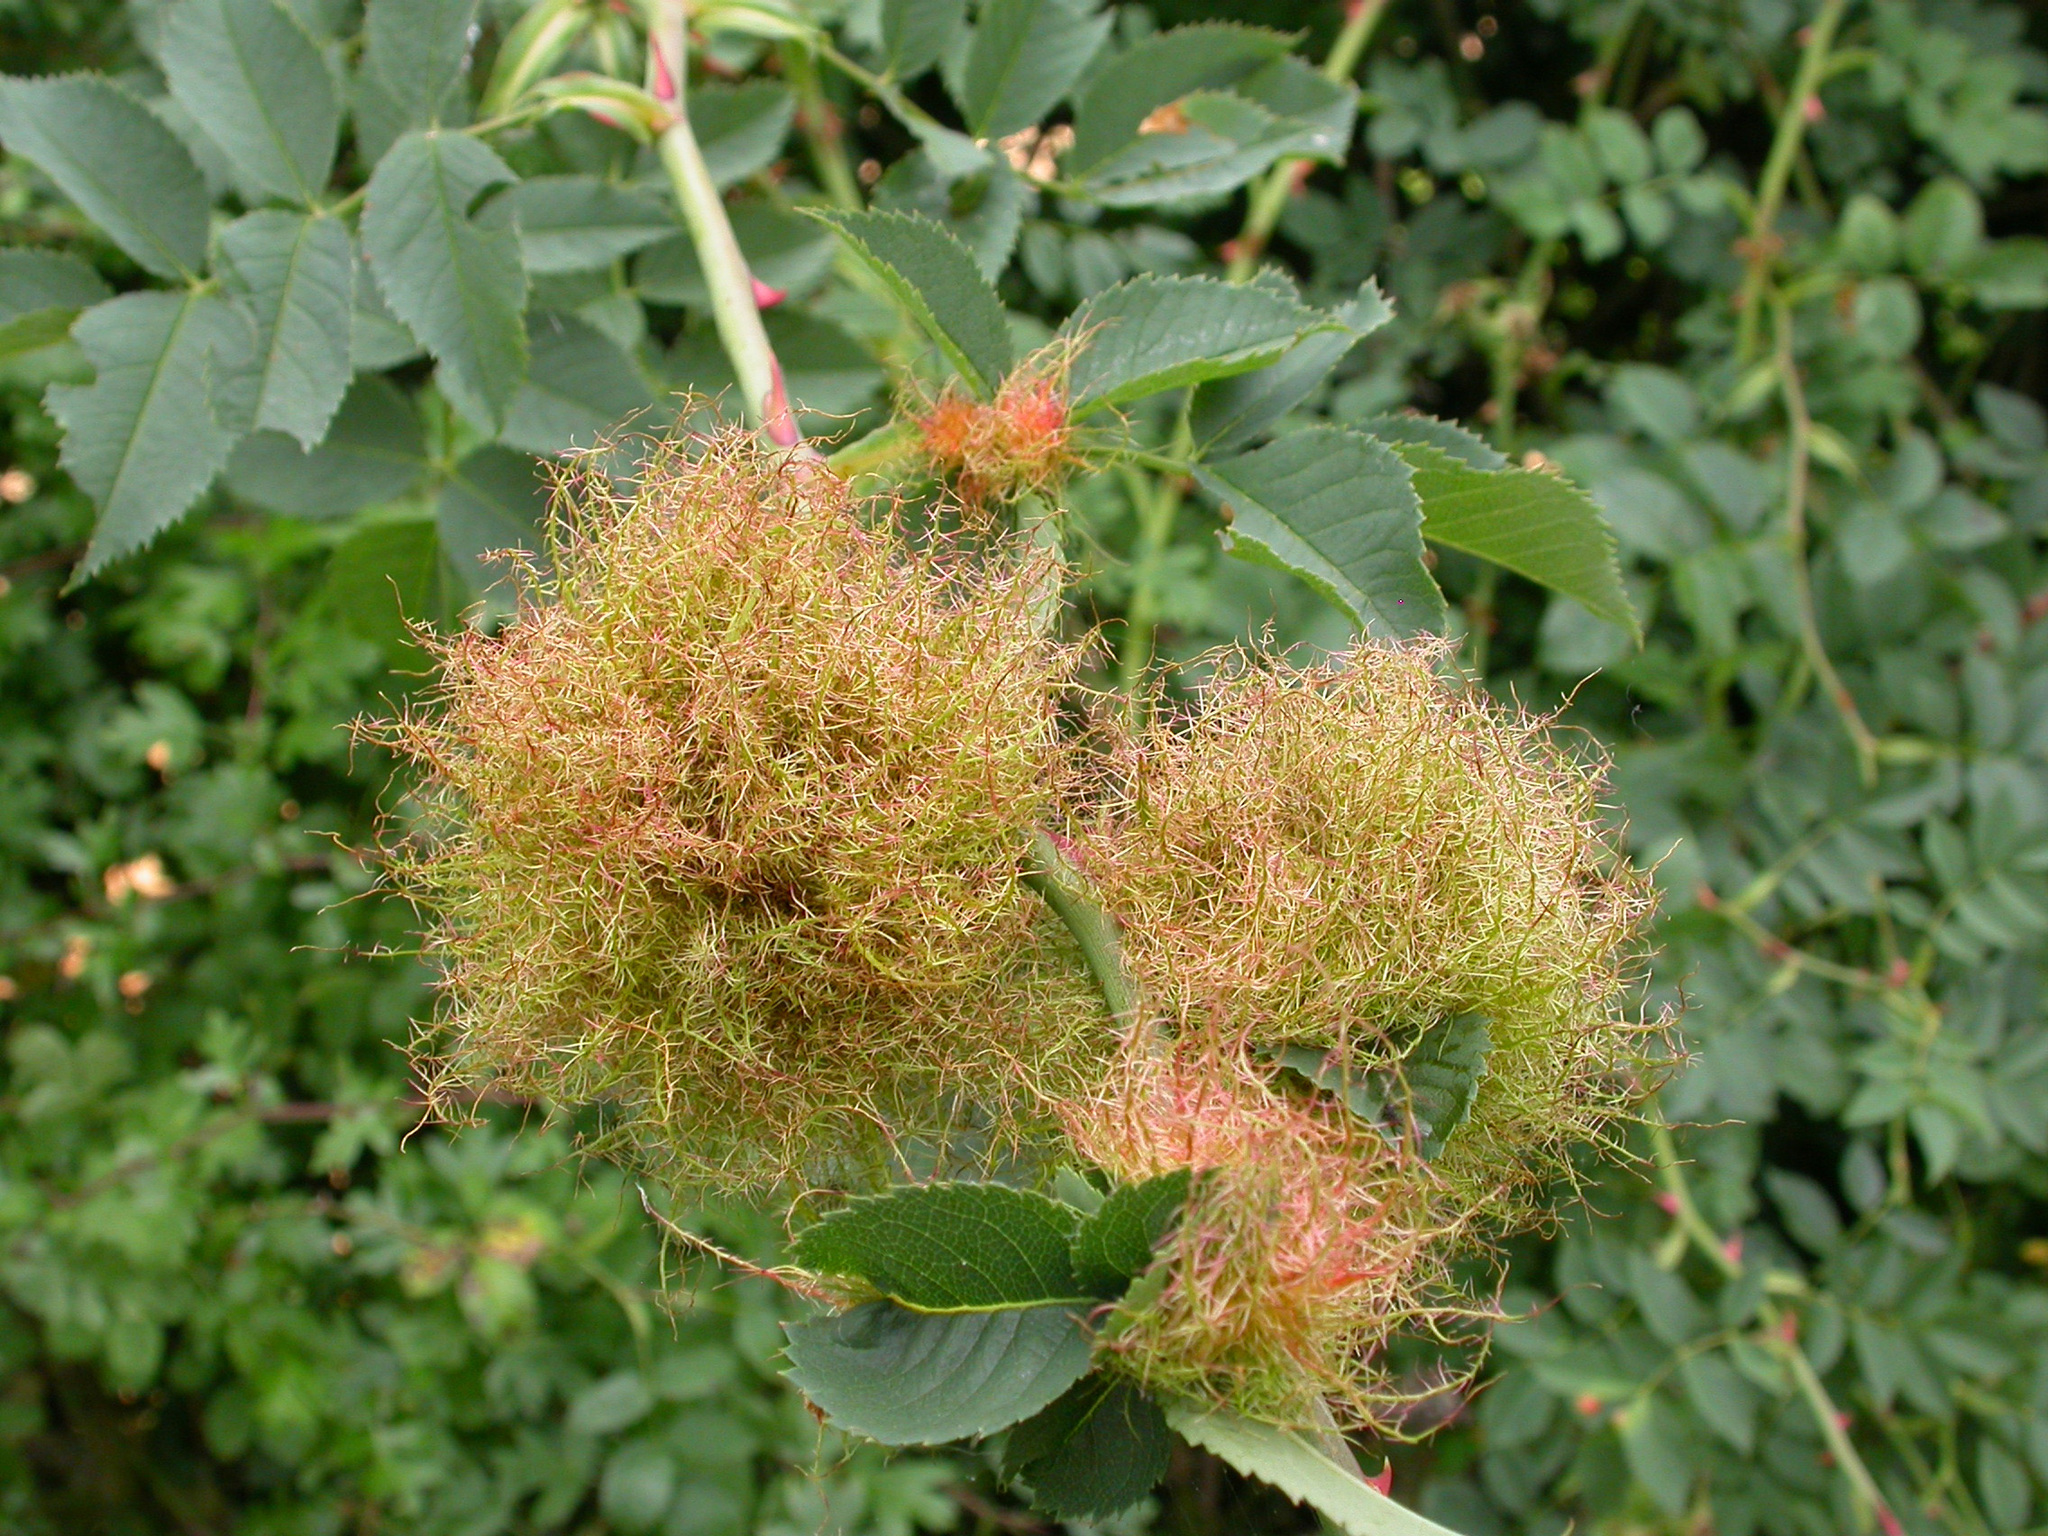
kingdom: Animalia
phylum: Arthropoda
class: Insecta
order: Hymenoptera
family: Cynipidae
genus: Diplolepis
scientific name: Diplolepis rosae
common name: Bedeguar gall
